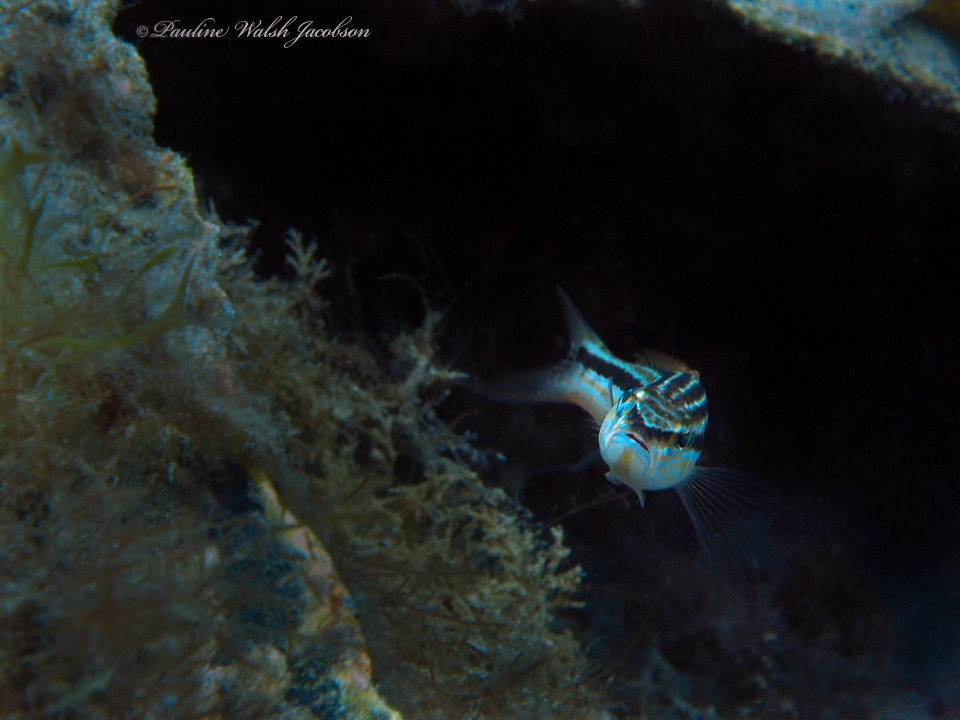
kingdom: Animalia
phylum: Chordata
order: Perciformes
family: Serranidae
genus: Diplectrum
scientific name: Diplectrum formosum
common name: Sand perch
